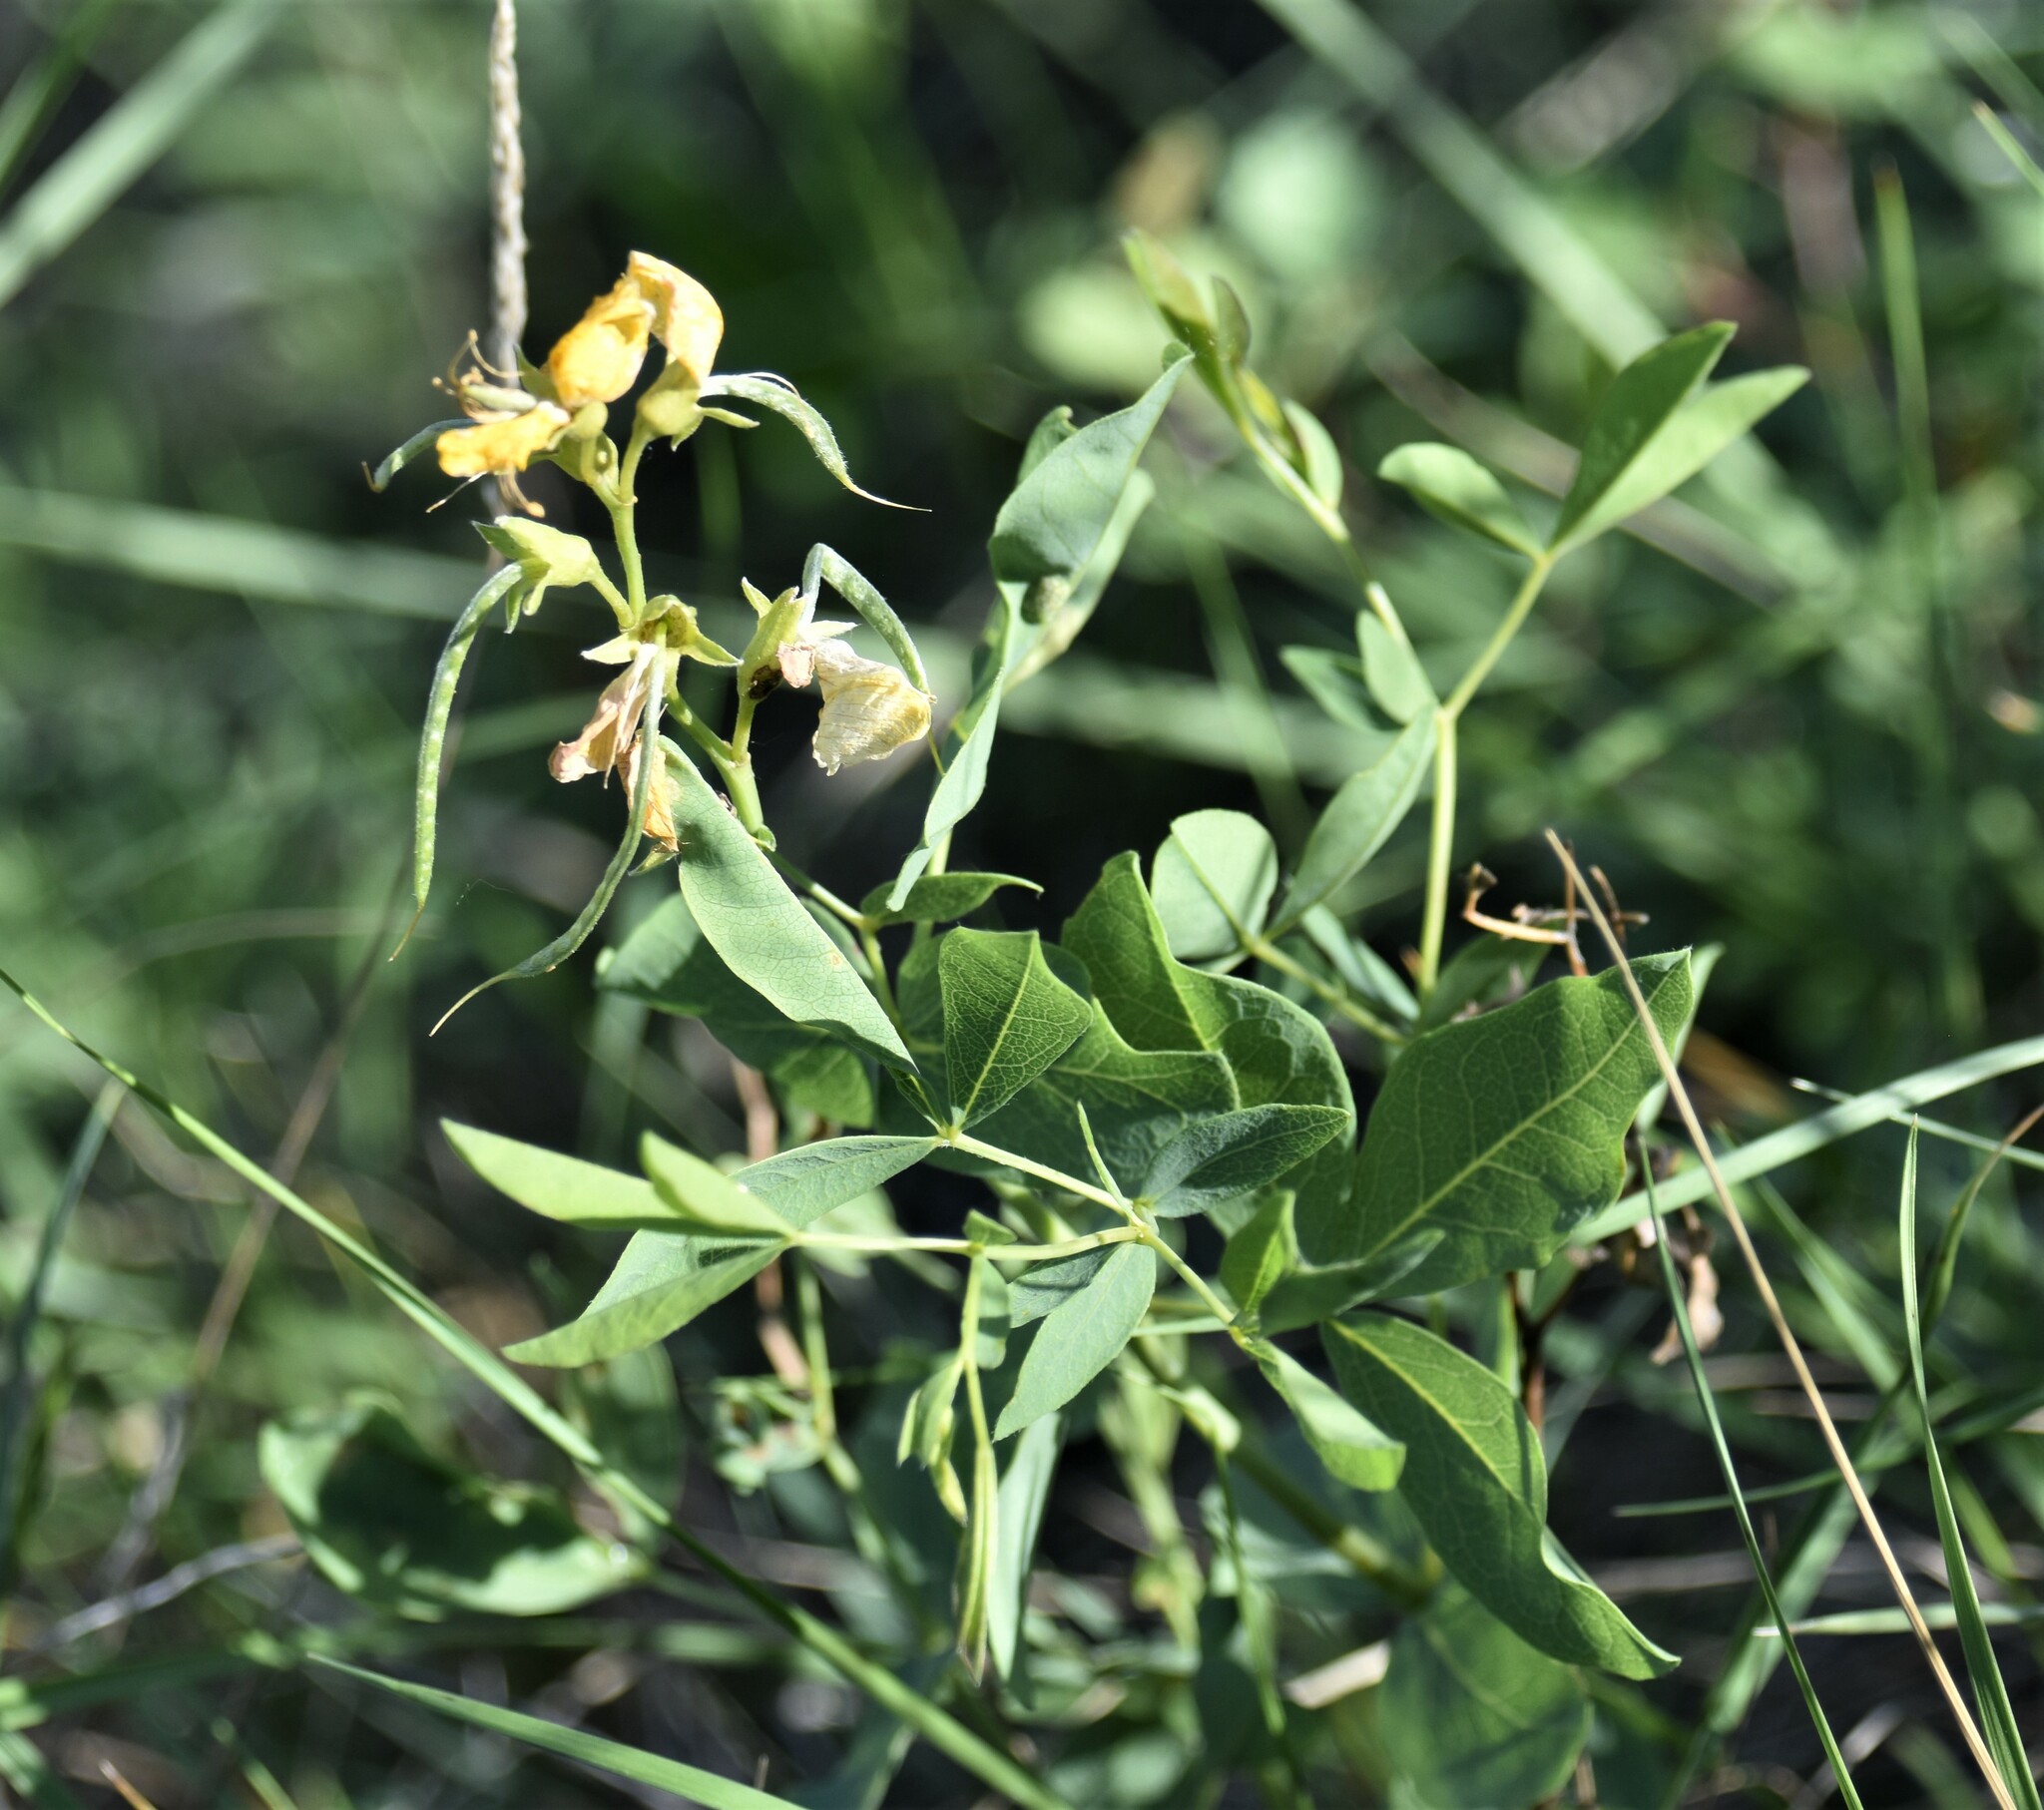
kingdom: Plantae
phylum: Tracheophyta
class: Magnoliopsida
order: Fabales
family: Fabaceae
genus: Thermopsis
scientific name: Thermopsis rhombifolia
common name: Circle-pod-pea
